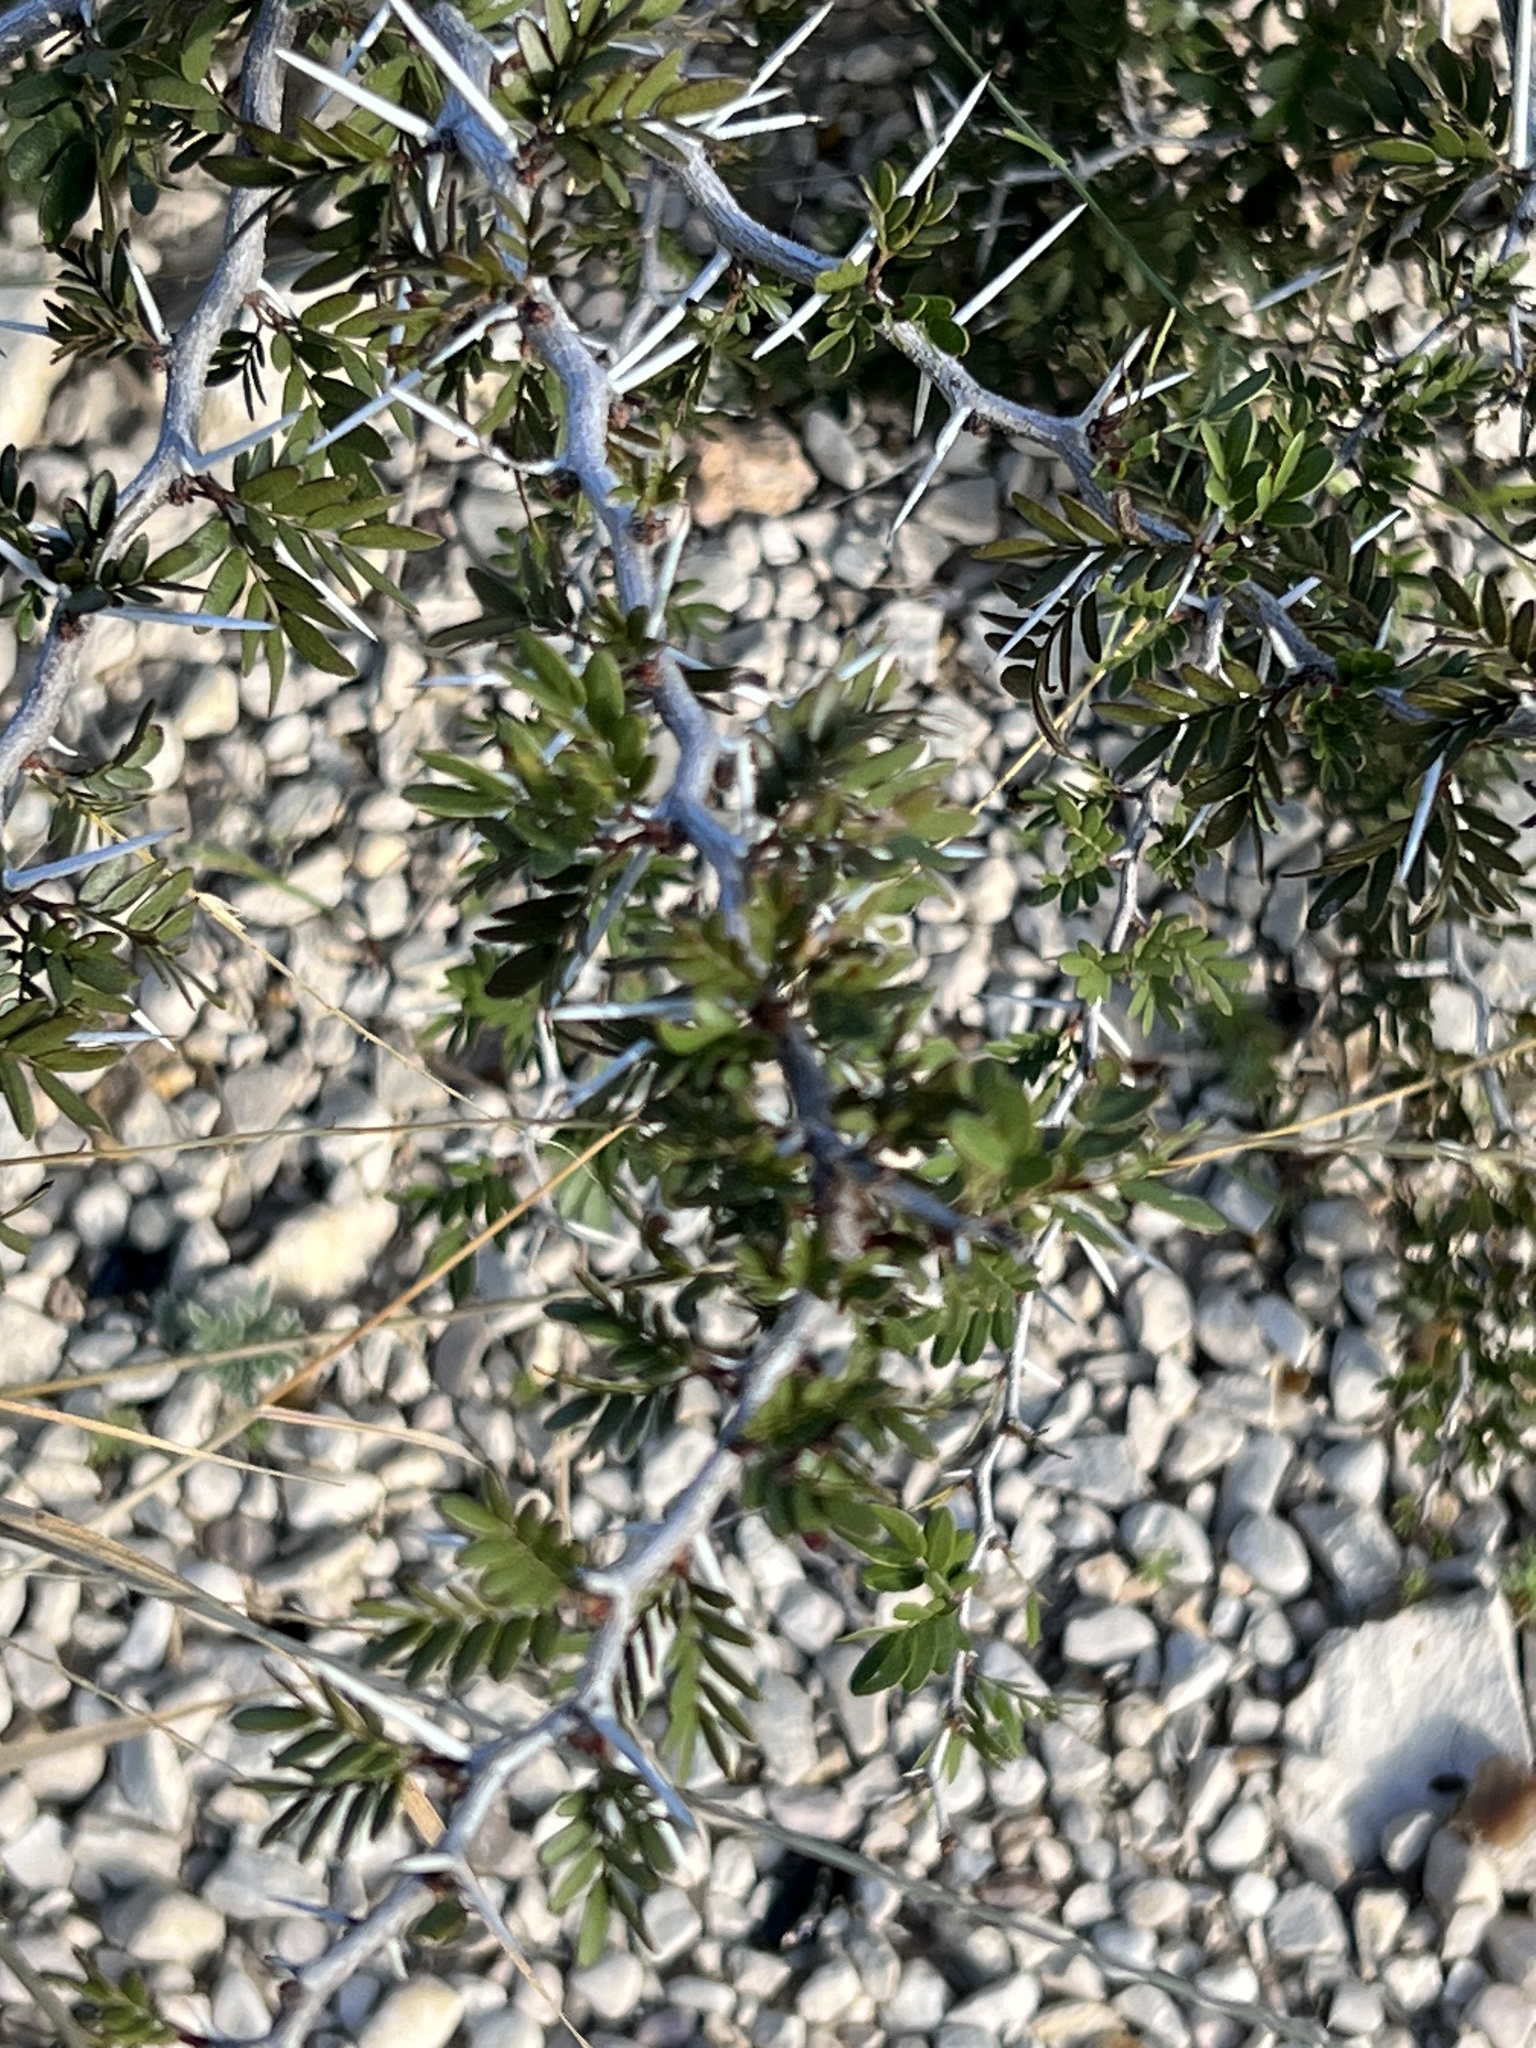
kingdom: Plantae
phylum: Tracheophyta
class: Magnoliopsida
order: Fabales
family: Fabaceae
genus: Vachellia
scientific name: Vachellia rigidula
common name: Blackbrush
